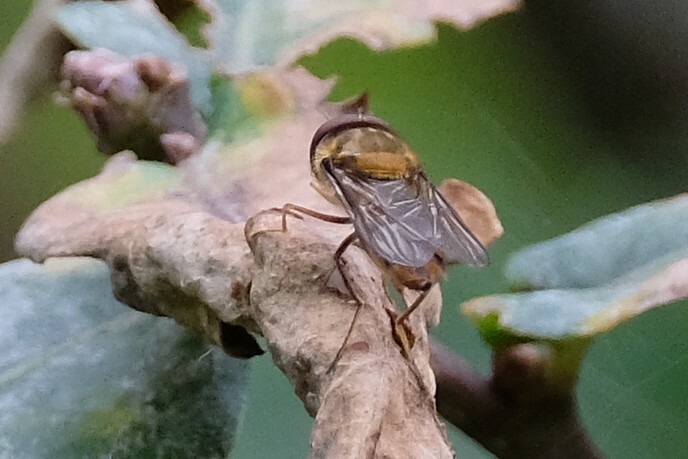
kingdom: Animalia
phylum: Arthropoda
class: Insecta
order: Diptera
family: Syrphidae
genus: Episyrphus
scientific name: Episyrphus balteatus
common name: Marmalade hoverfly
